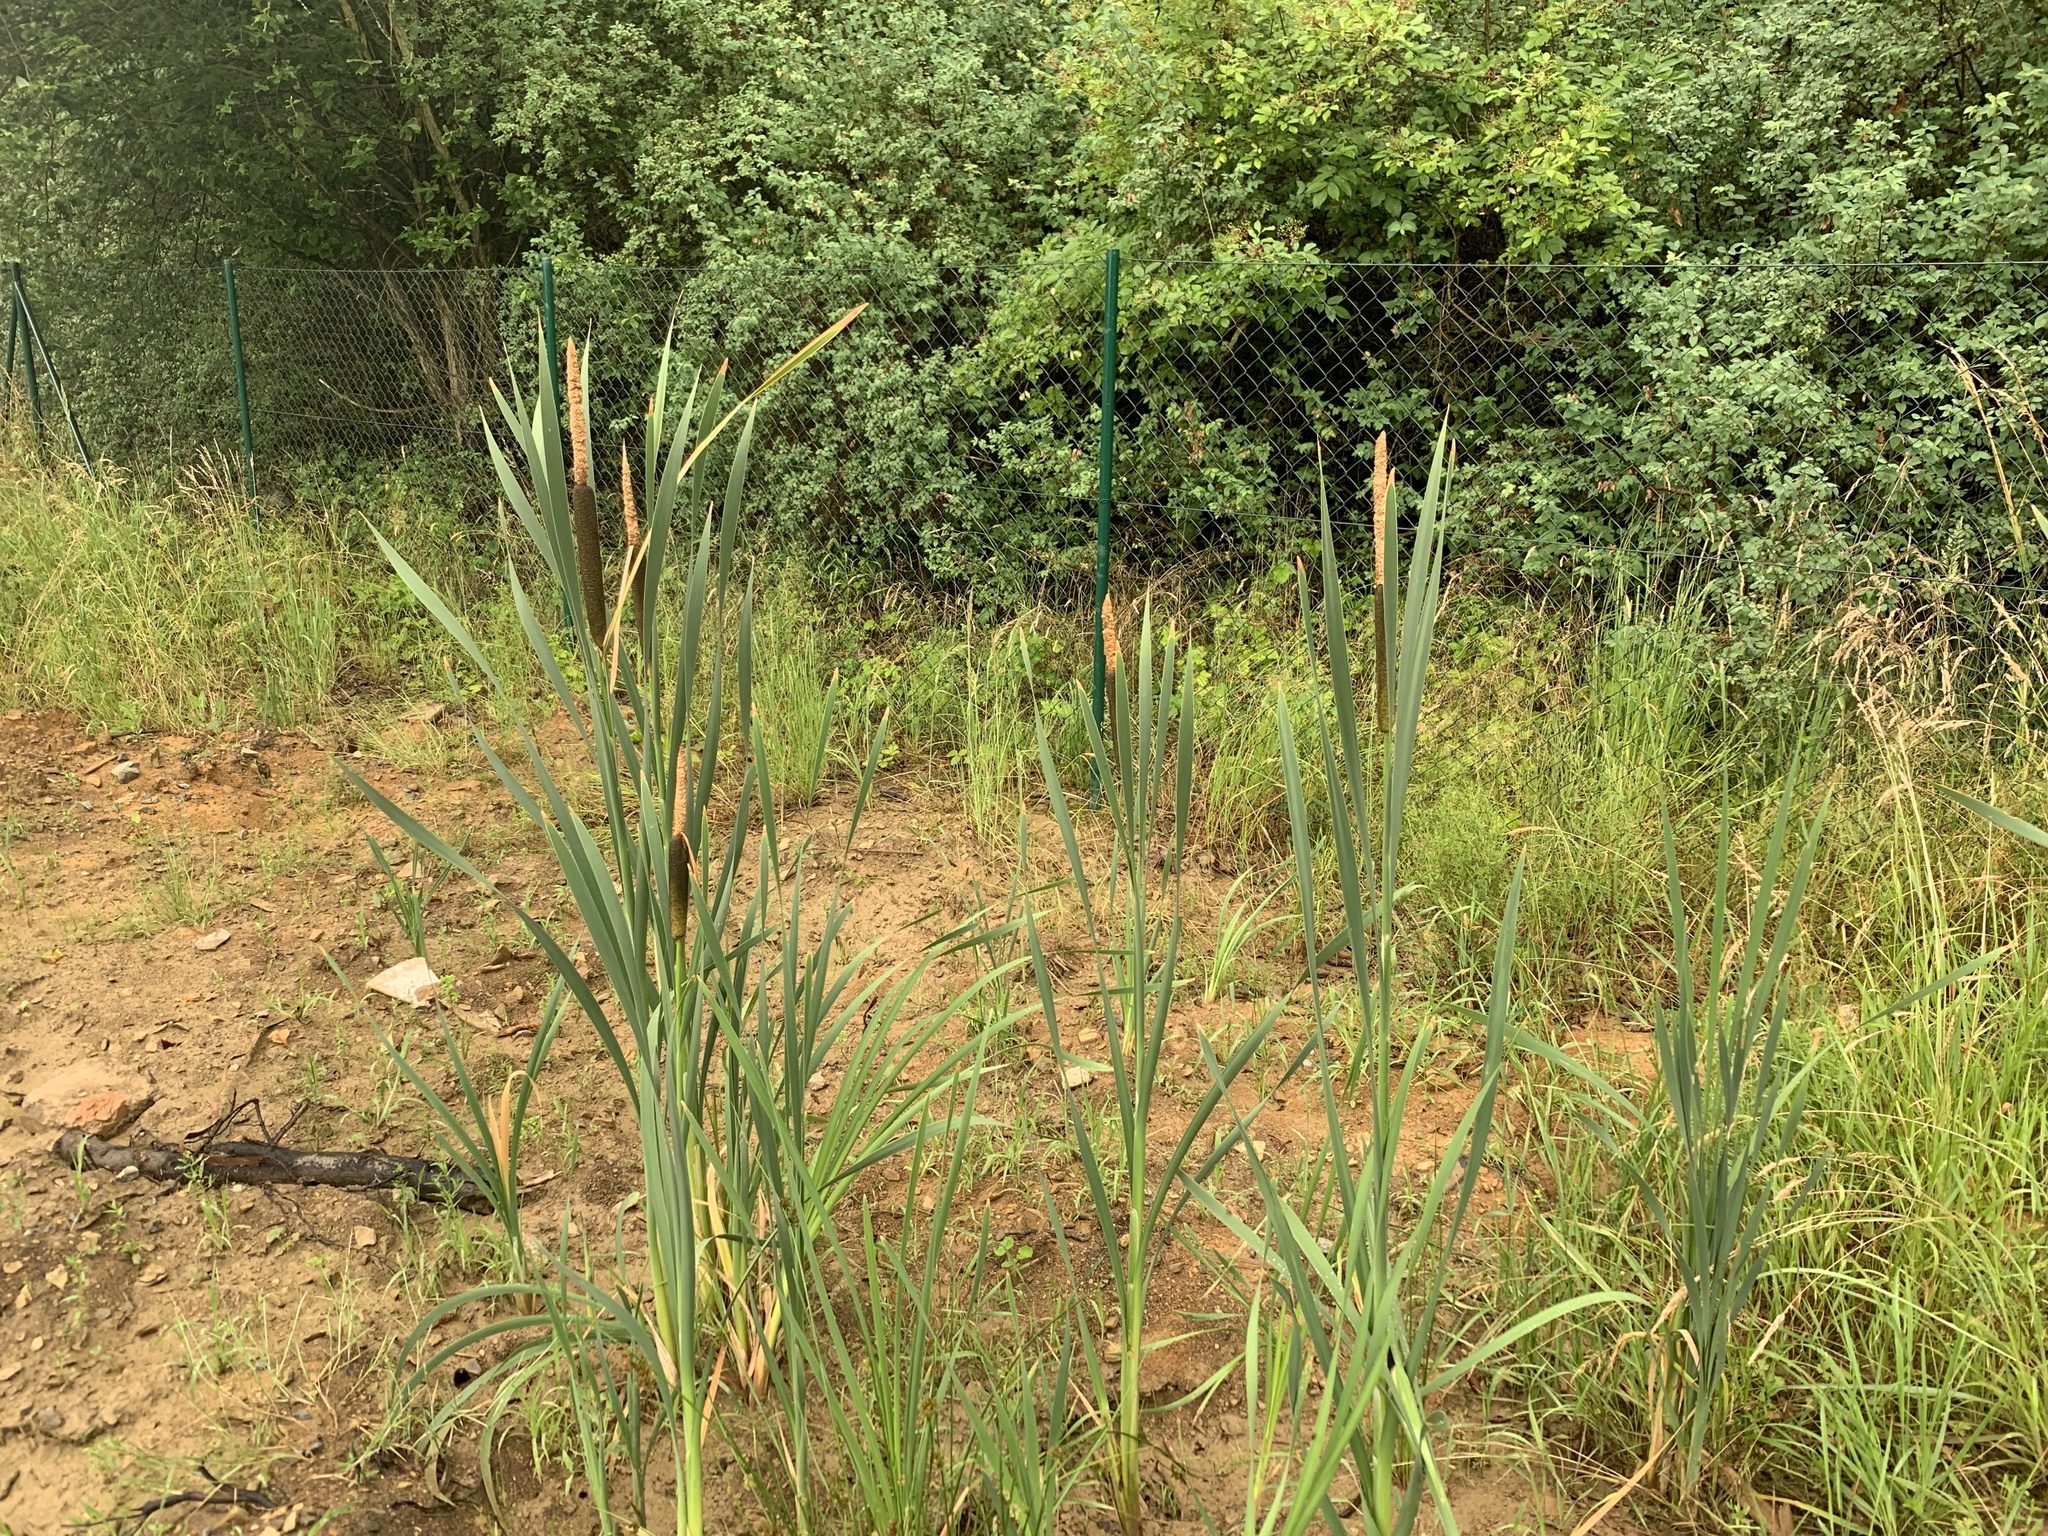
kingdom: Plantae
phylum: Tracheophyta
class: Liliopsida
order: Poales
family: Typhaceae
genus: Typha
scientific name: Typha latifolia
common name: Broadleaf cattail
